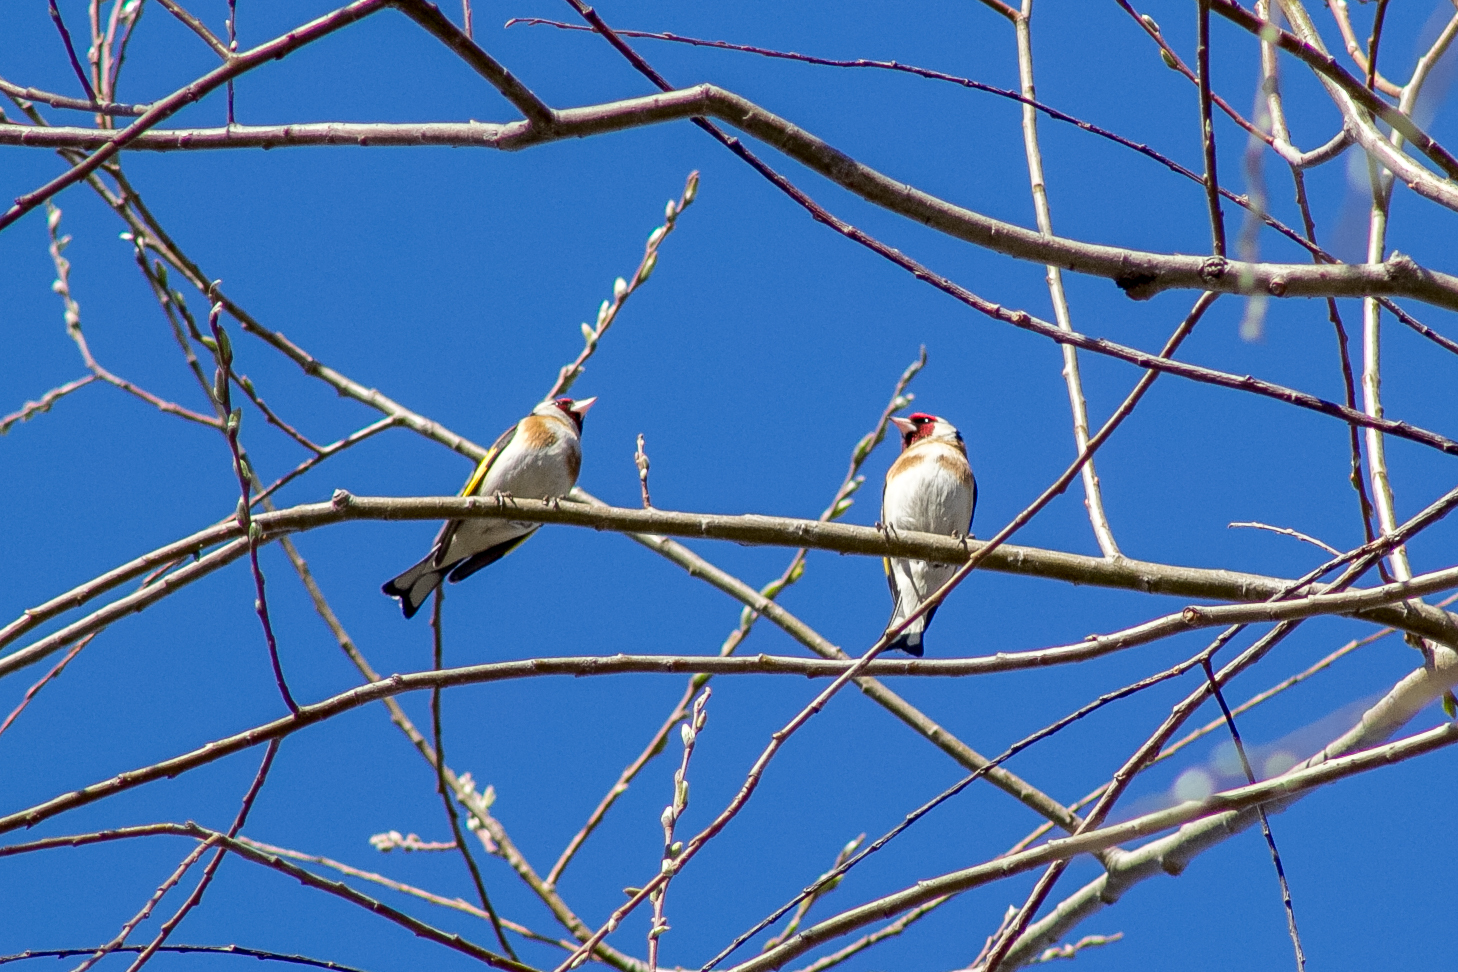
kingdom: Animalia
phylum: Chordata
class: Aves
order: Passeriformes
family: Fringillidae
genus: Carduelis
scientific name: Carduelis carduelis
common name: European goldfinch
